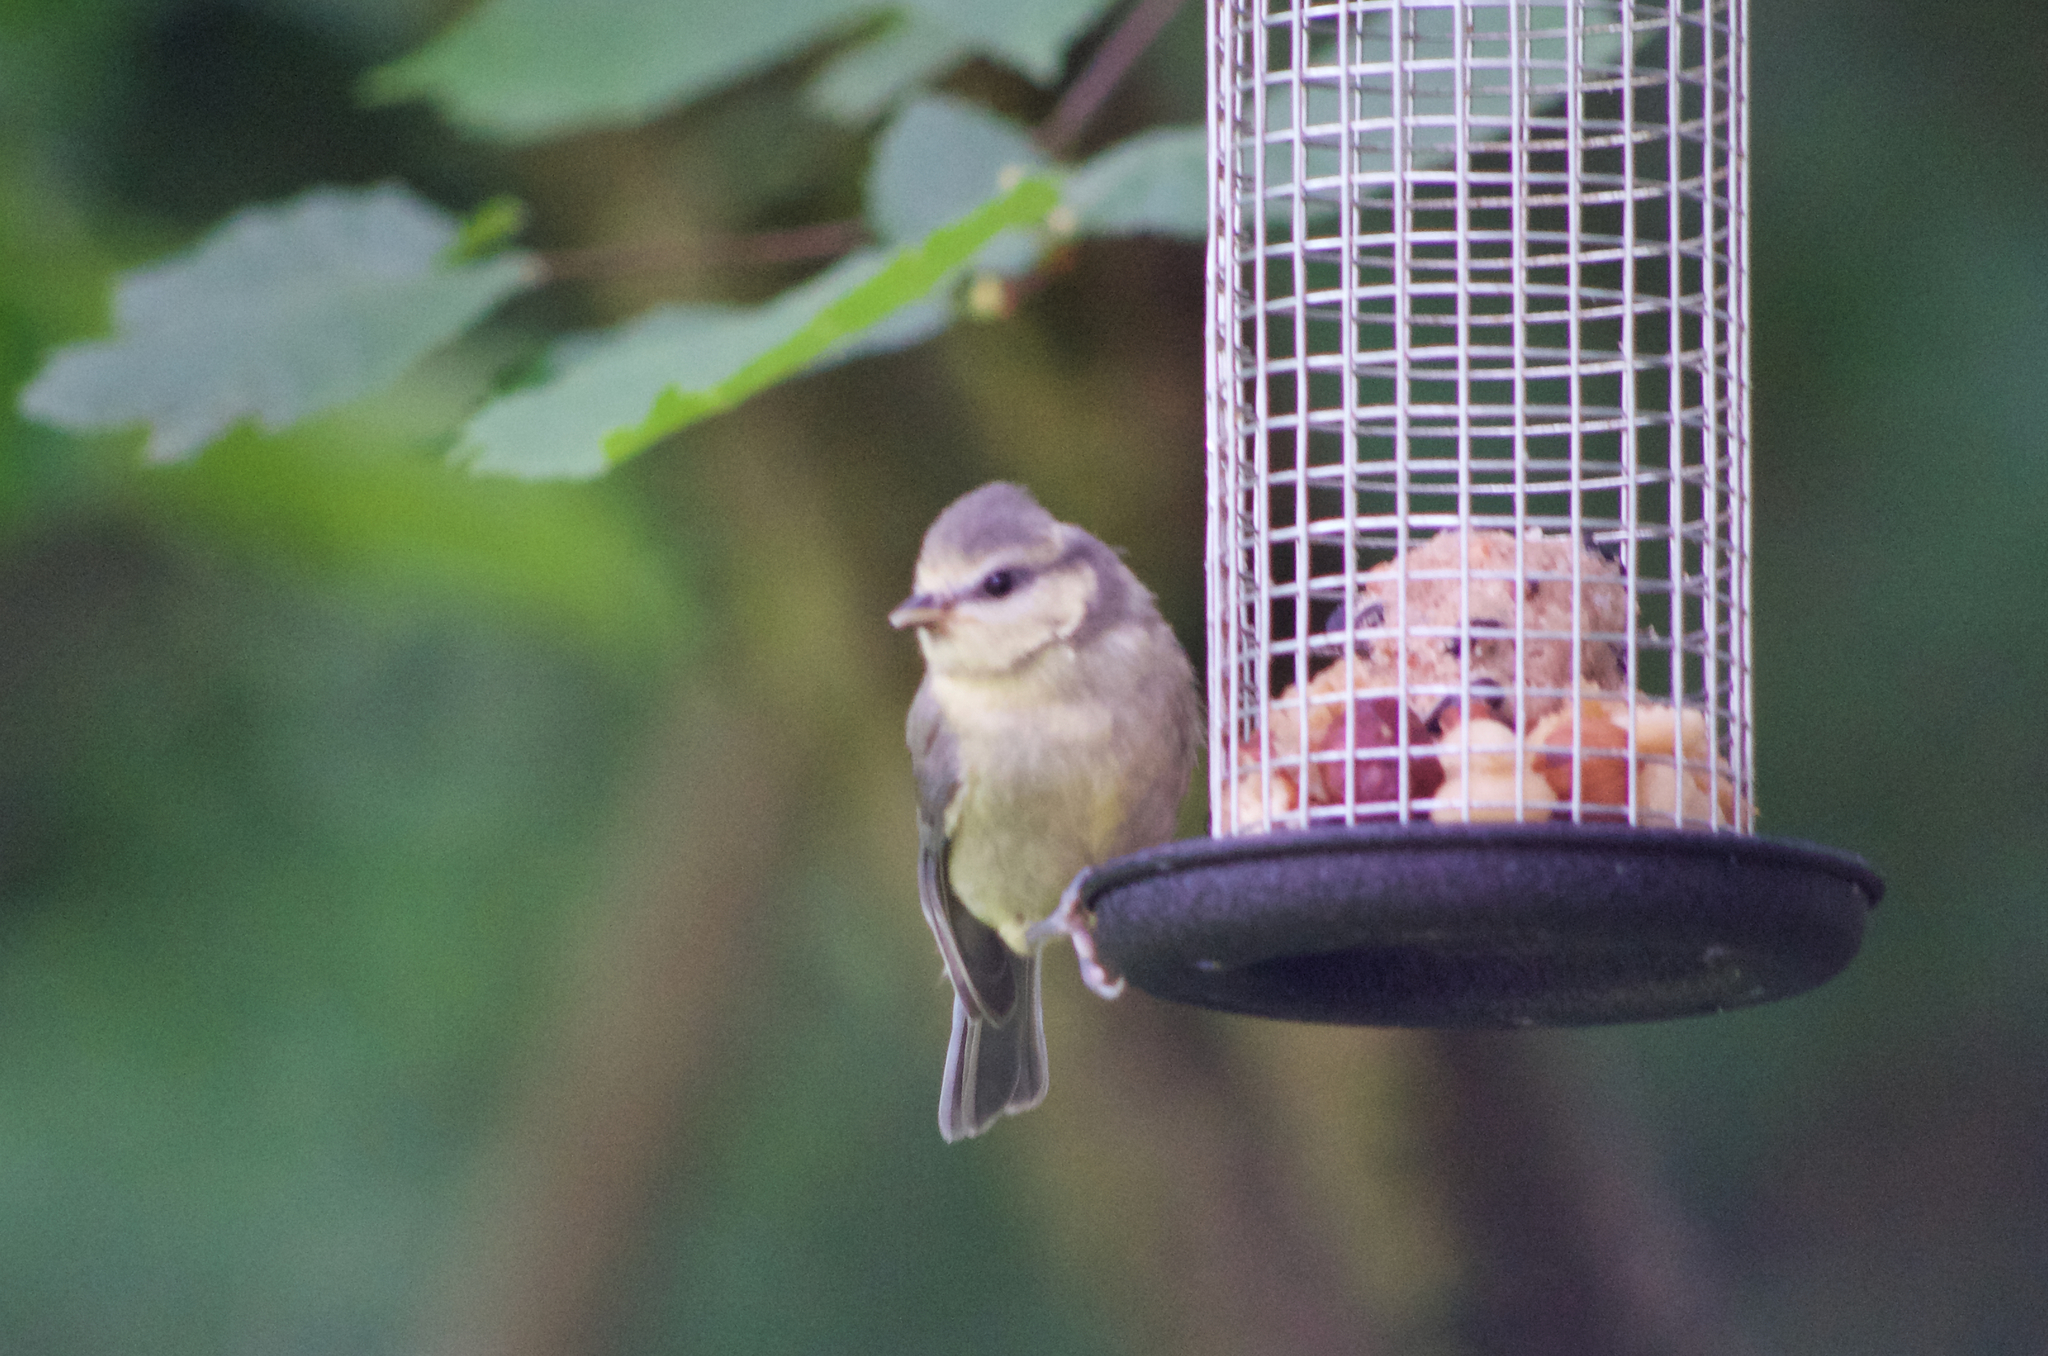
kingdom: Animalia
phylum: Chordata
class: Aves
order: Passeriformes
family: Paridae
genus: Cyanistes
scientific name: Cyanistes caeruleus
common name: Eurasian blue tit
